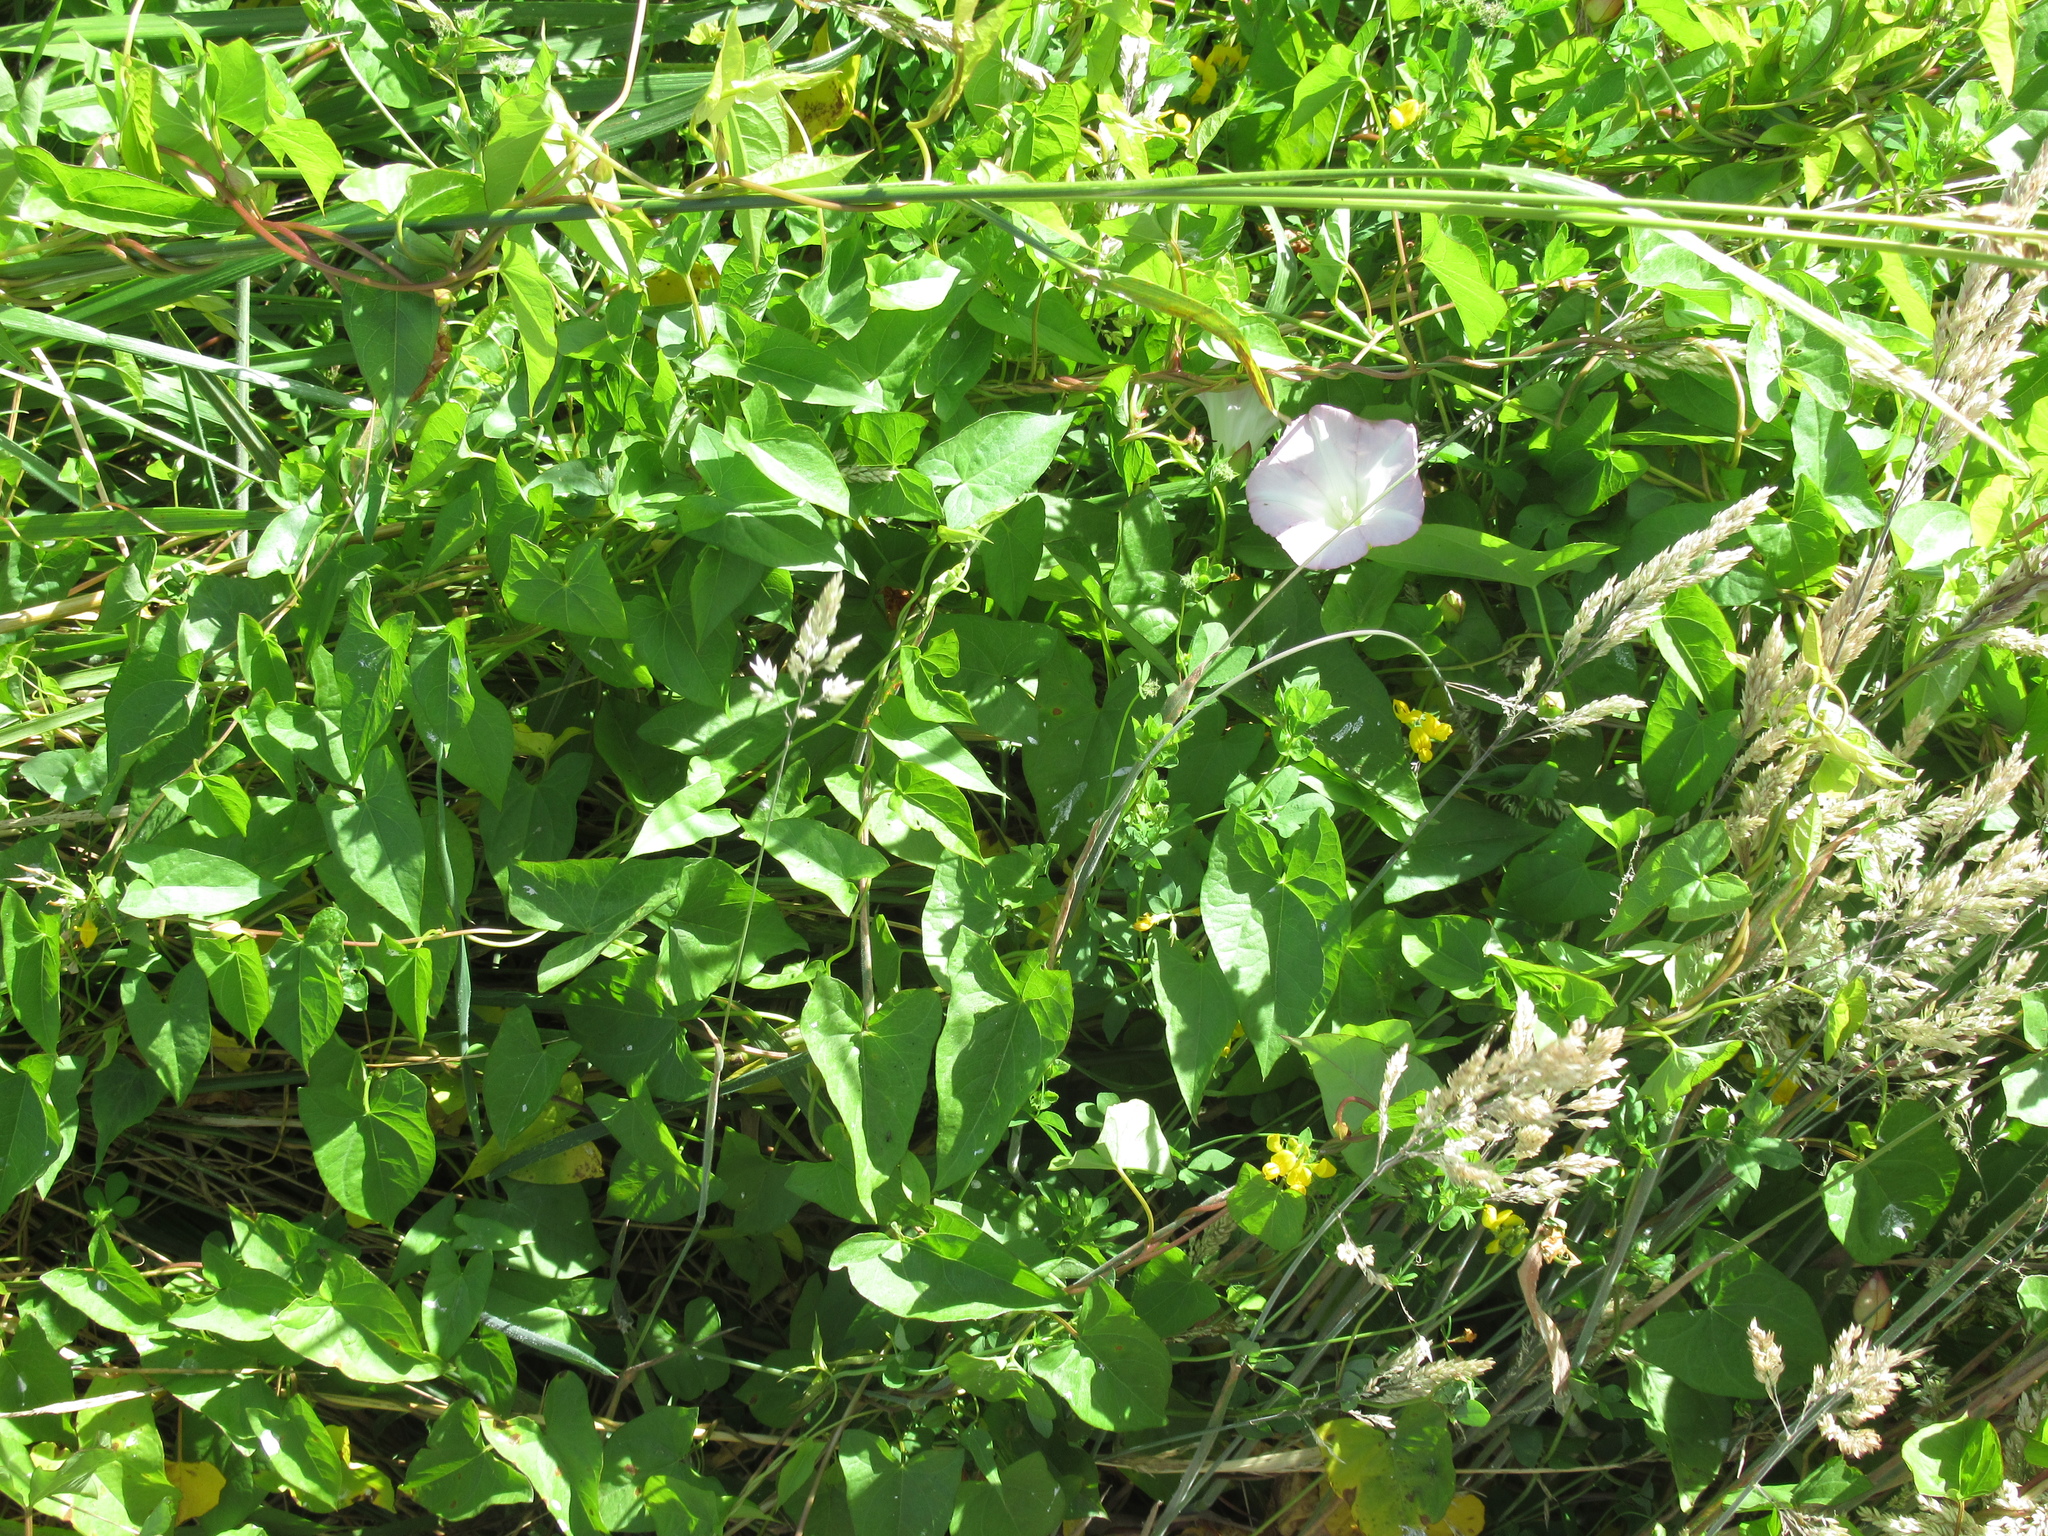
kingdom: Plantae
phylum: Tracheophyta
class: Magnoliopsida
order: Solanales
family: Convolvulaceae
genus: Calystegia
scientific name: Calystegia sepium
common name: Hedge bindweed
